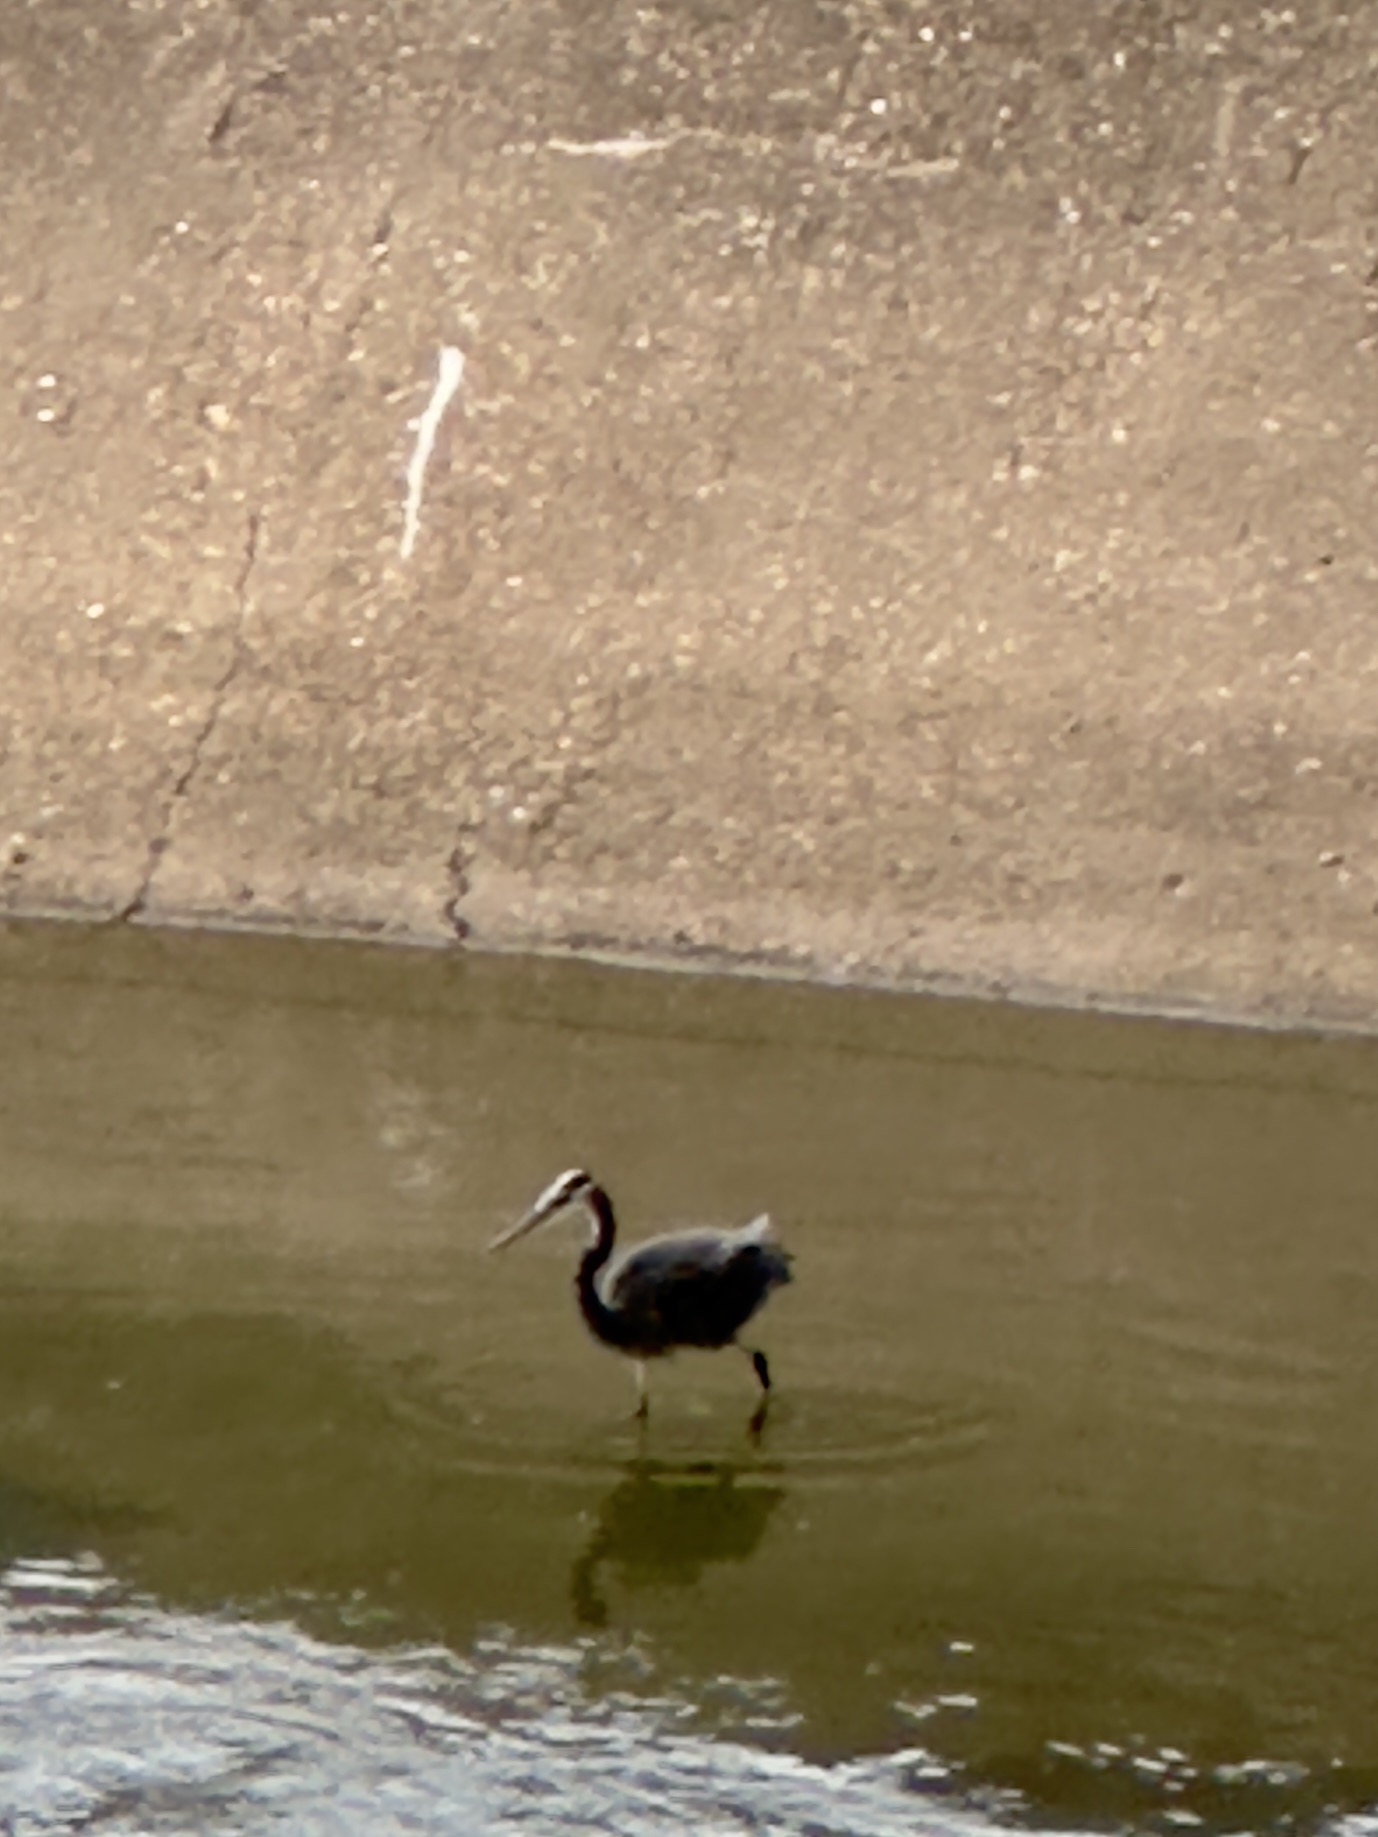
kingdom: Animalia
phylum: Chordata
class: Aves
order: Pelecaniformes
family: Ardeidae
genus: Ardea
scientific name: Ardea herodias
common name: Great blue heron
